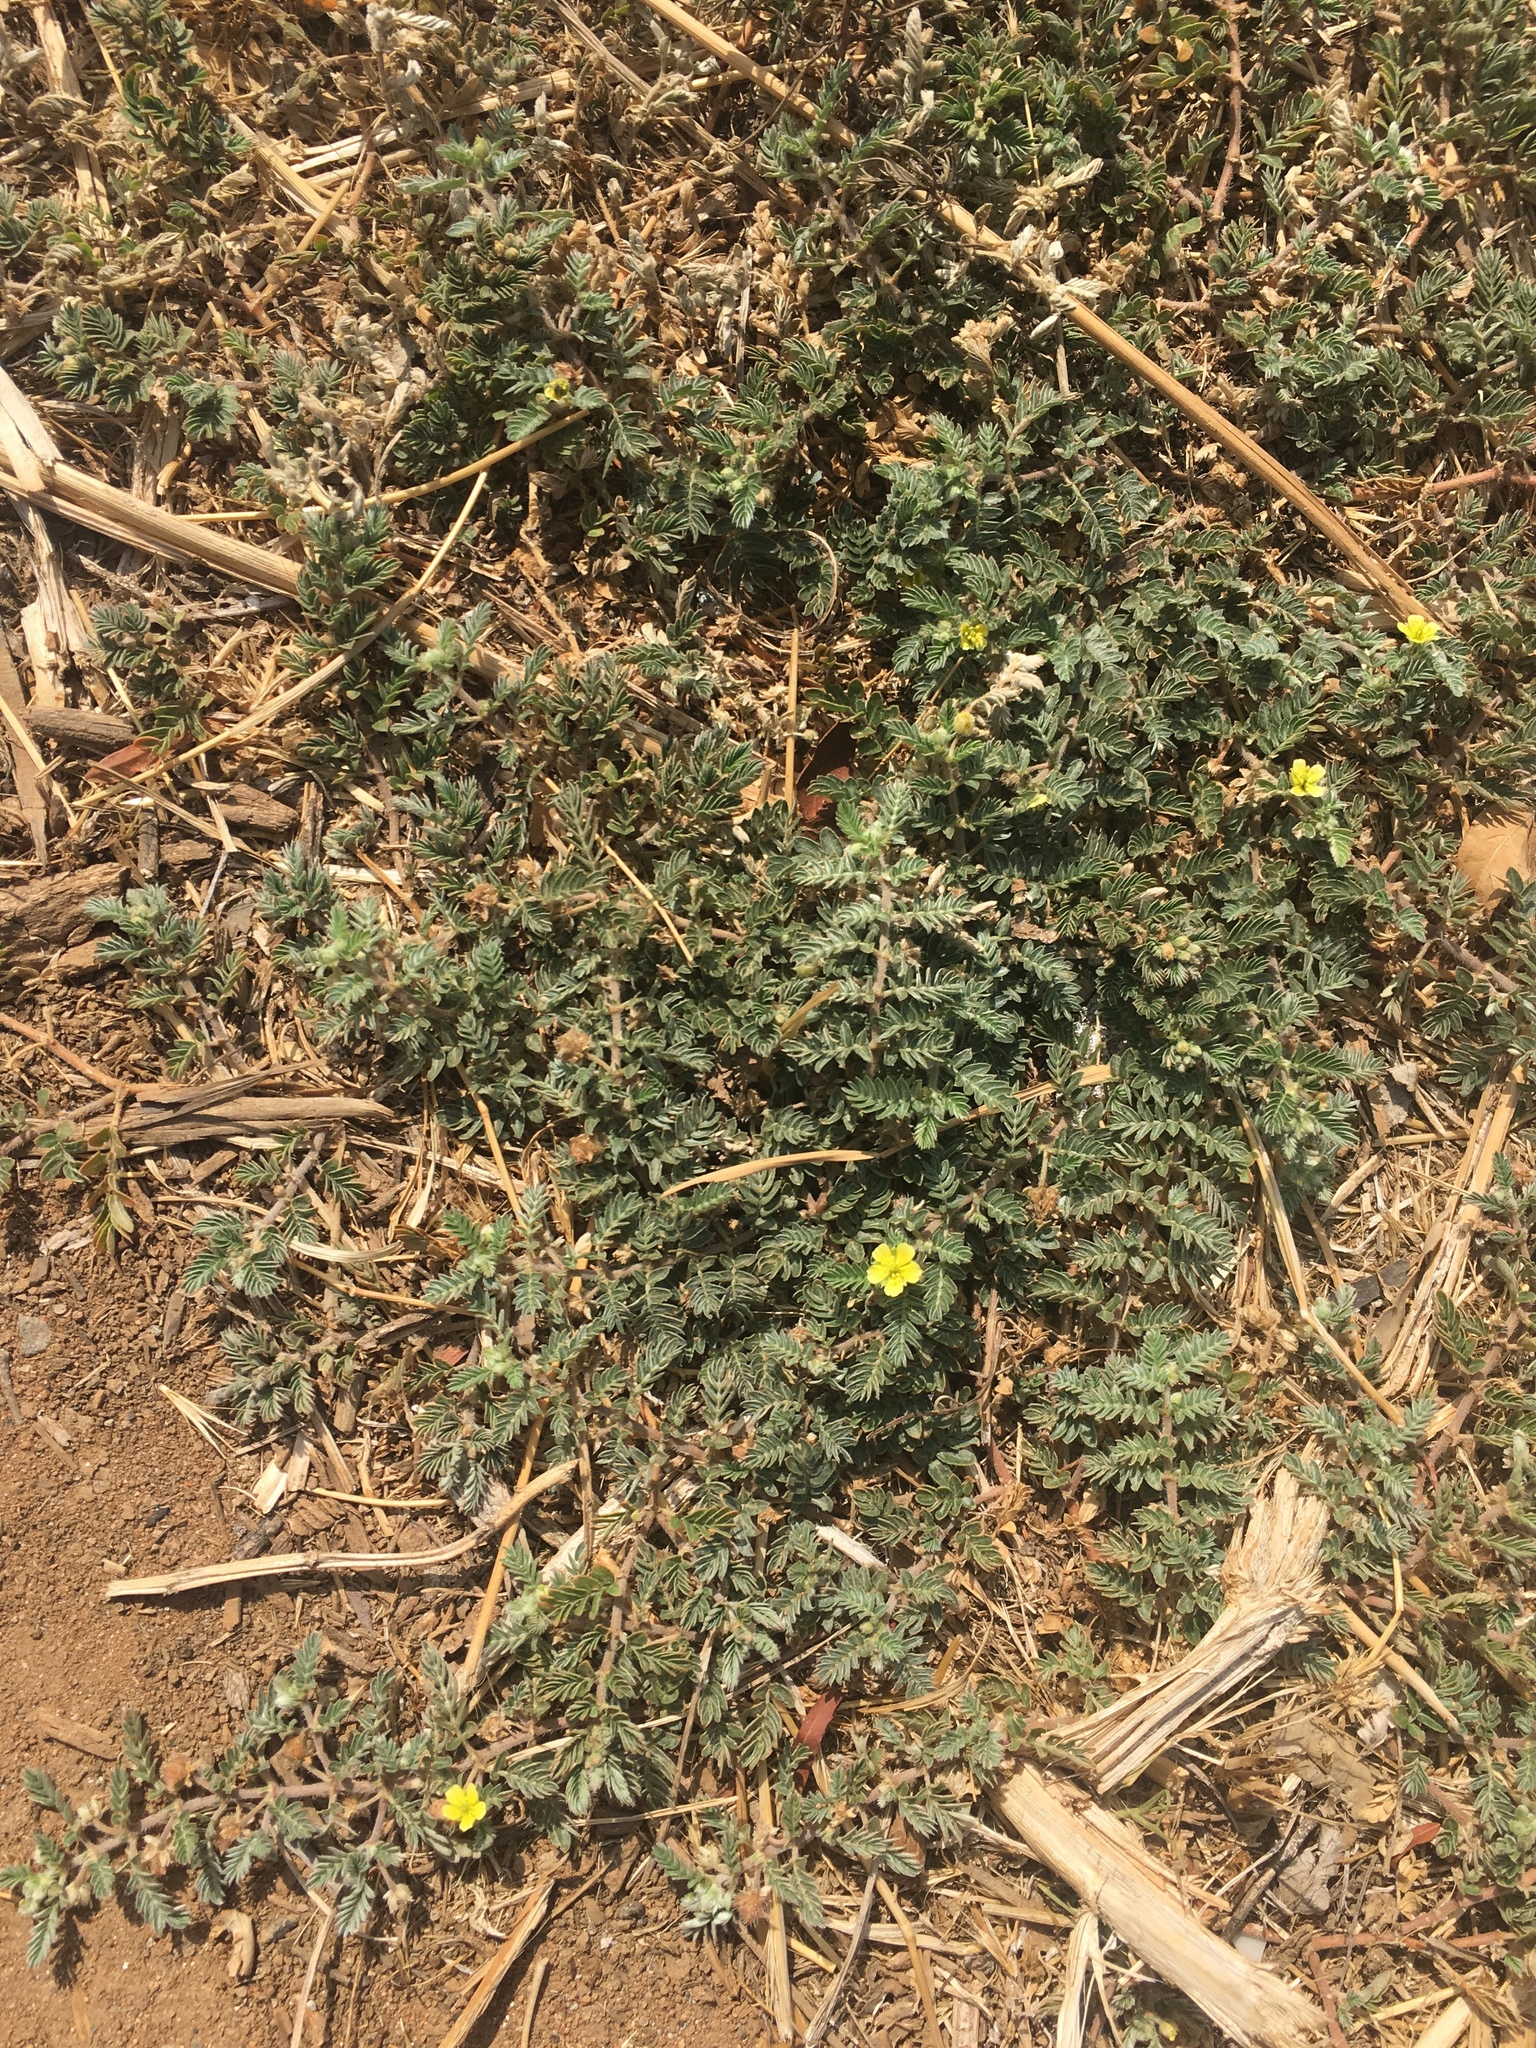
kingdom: Plantae
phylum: Tracheophyta
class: Magnoliopsida
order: Zygophyllales
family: Zygophyllaceae
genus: Tribulus
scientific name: Tribulus terrestris
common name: Puncturevine
